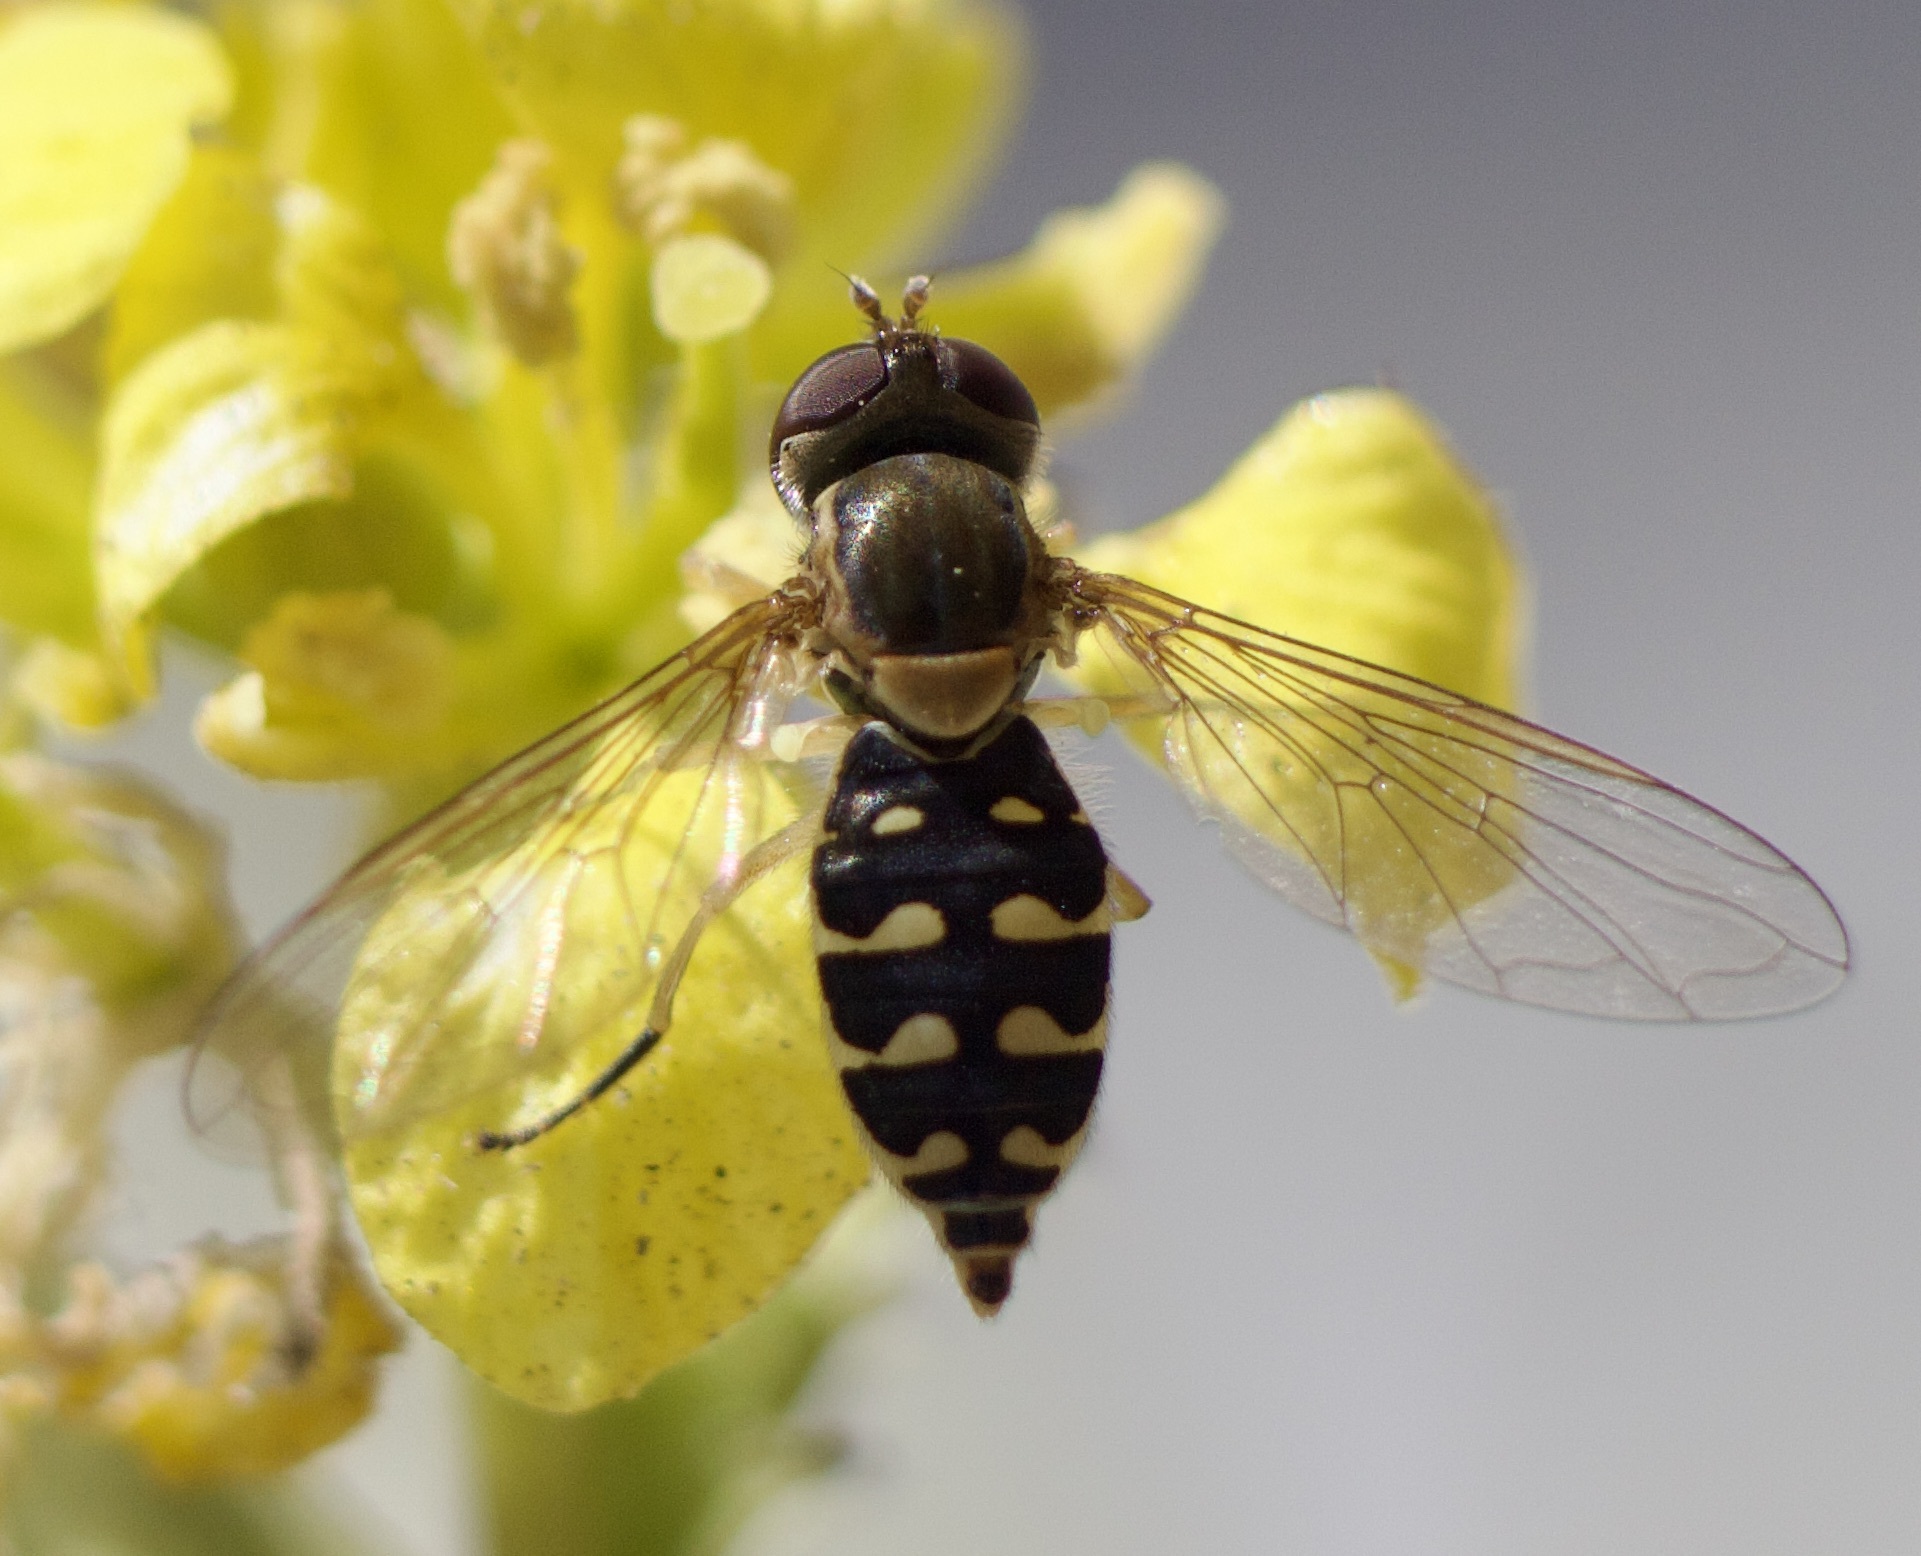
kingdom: Animalia
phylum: Arthropoda
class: Insecta
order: Diptera
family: Syrphidae
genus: Toxomerus
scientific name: Toxomerus vertebratus
